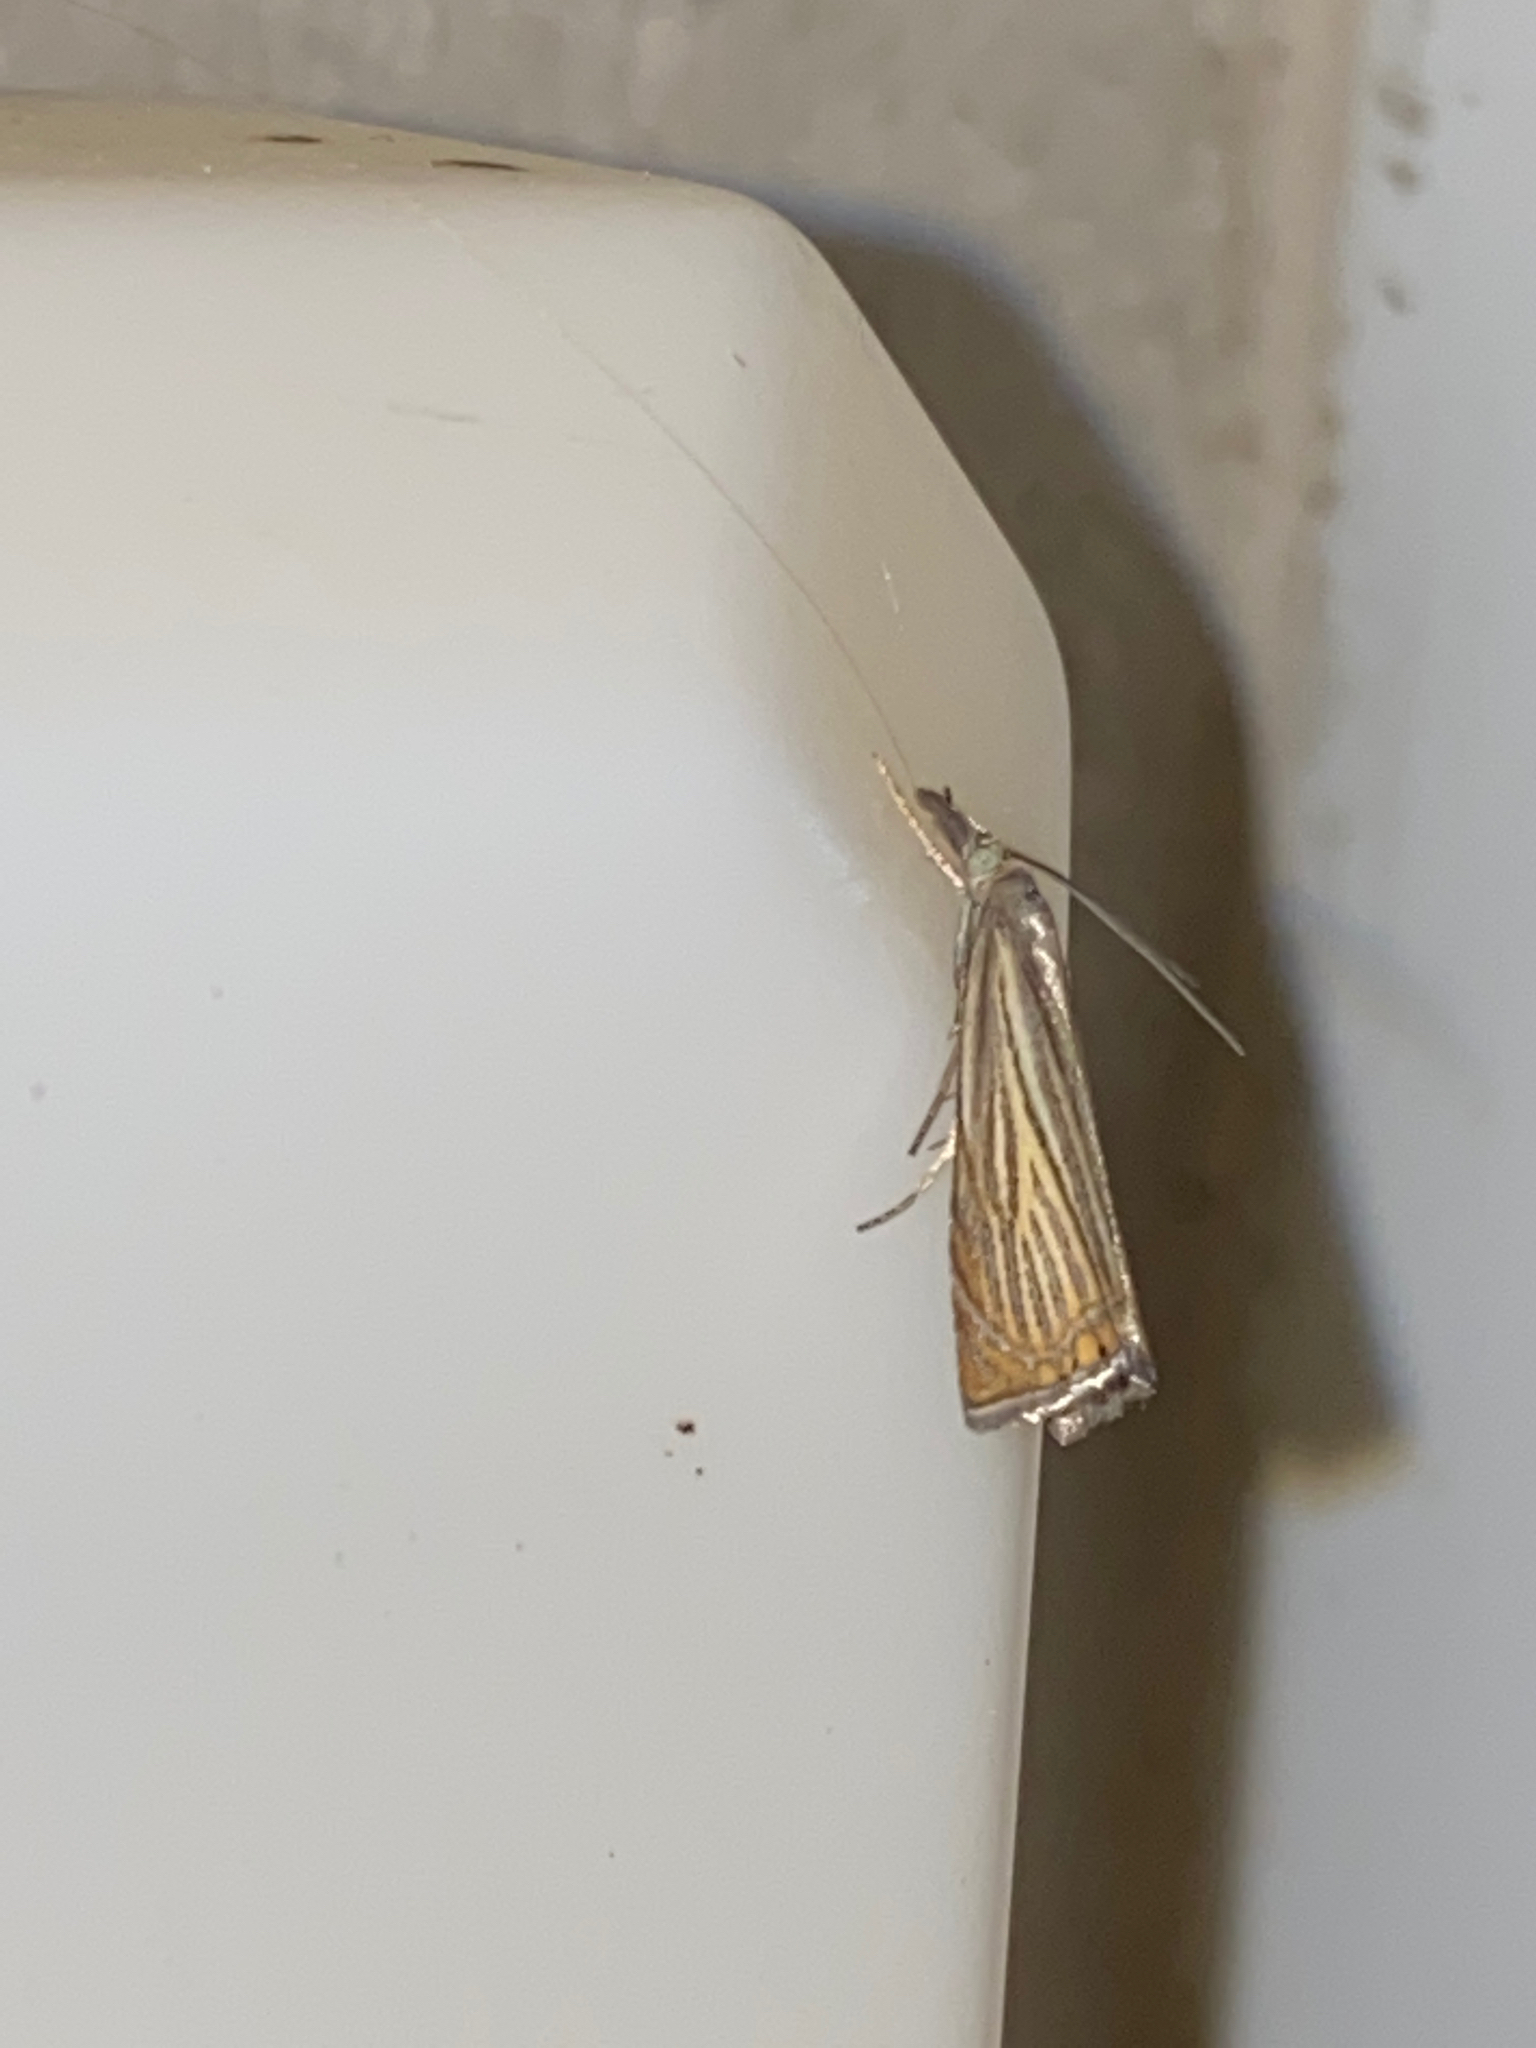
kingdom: Animalia
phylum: Arthropoda
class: Insecta
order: Lepidoptera
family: Crambidae
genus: Chrysoteuchia
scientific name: Chrysoteuchia culmella
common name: Garden grass-veneer
